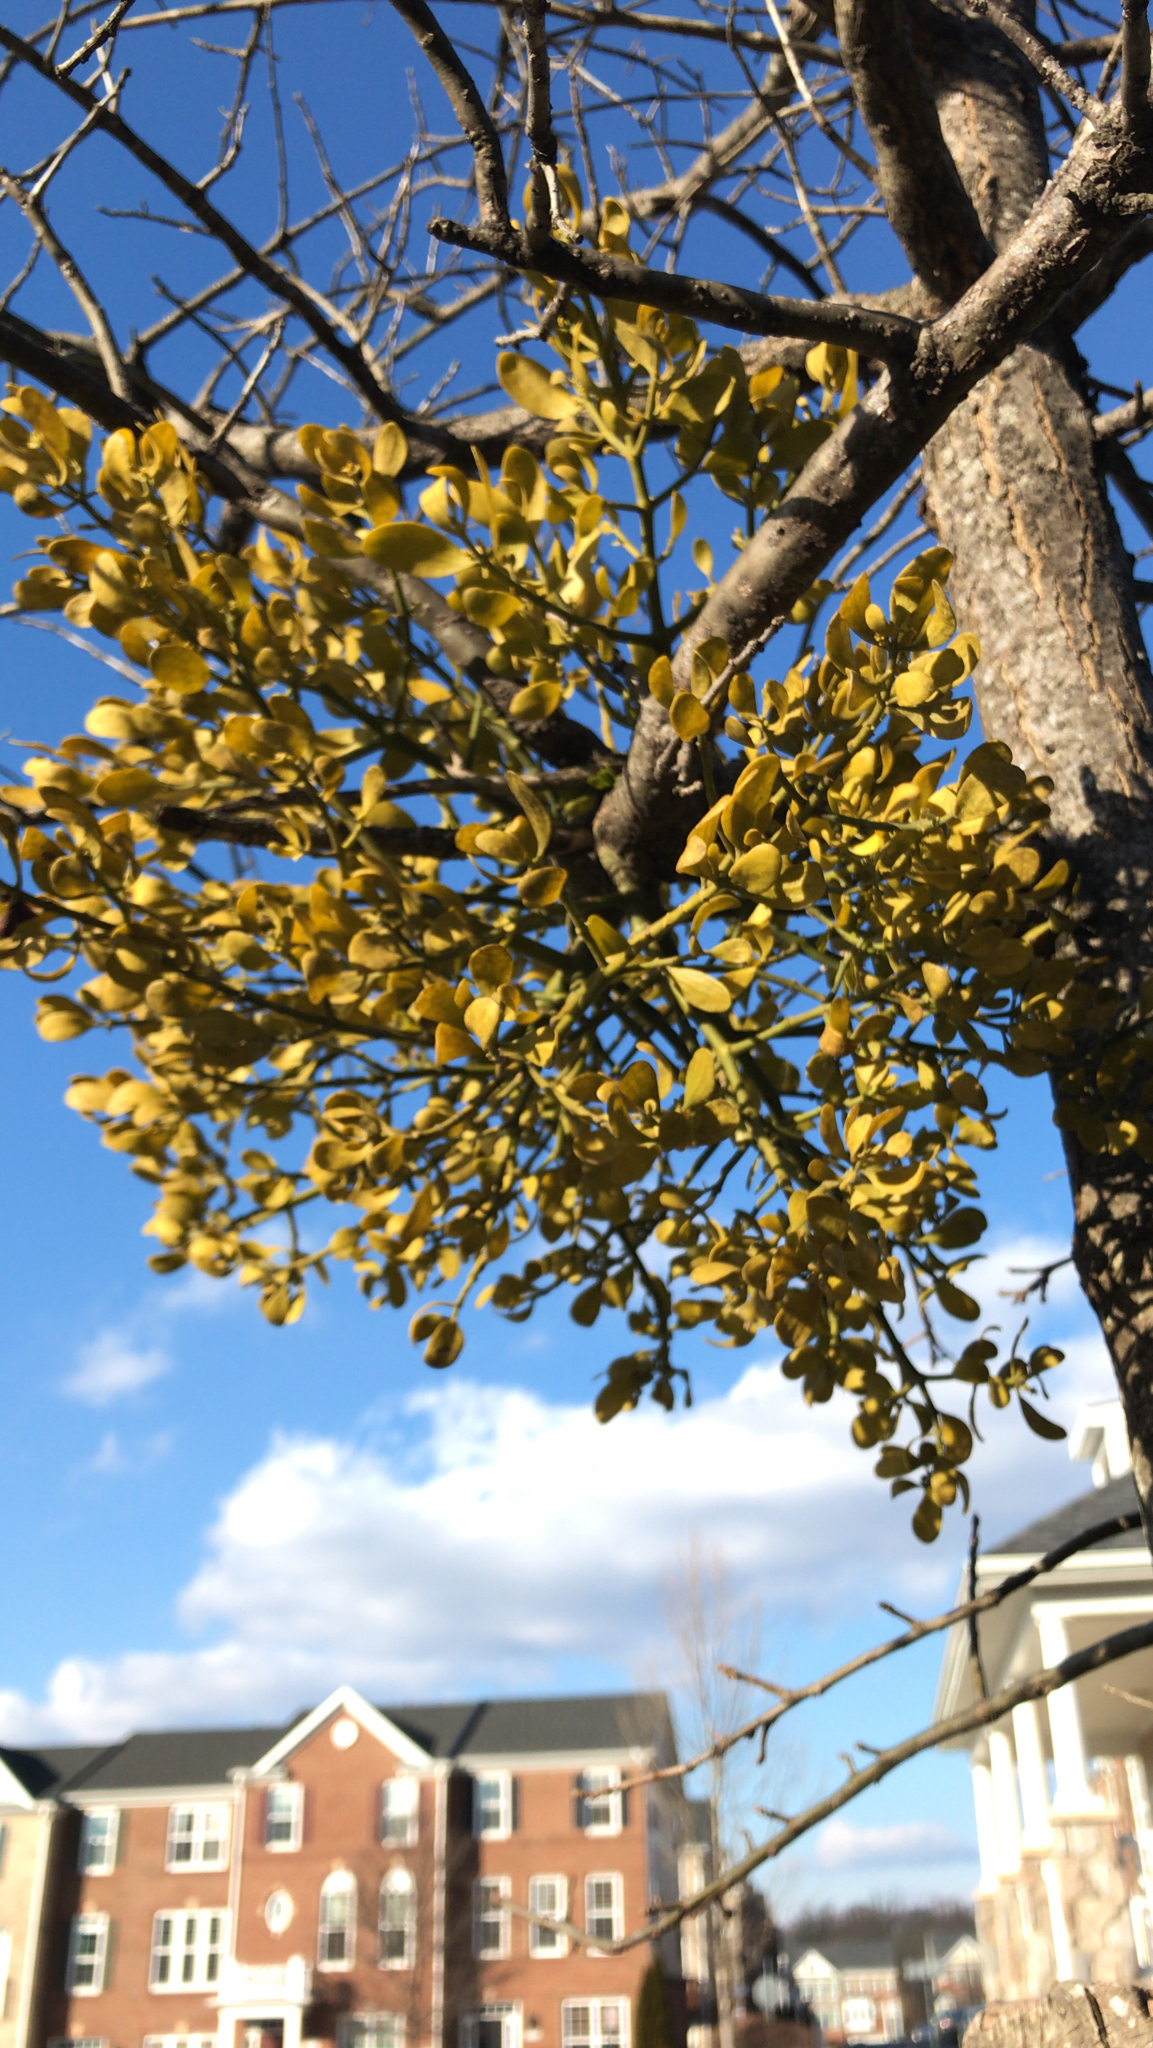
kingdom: Plantae
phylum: Tracheophyta
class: Magnoliopsida
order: Santalales
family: Viscaceae
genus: Phoradendron
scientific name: Phoradendron leucarpum
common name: Pacific mistletoe
